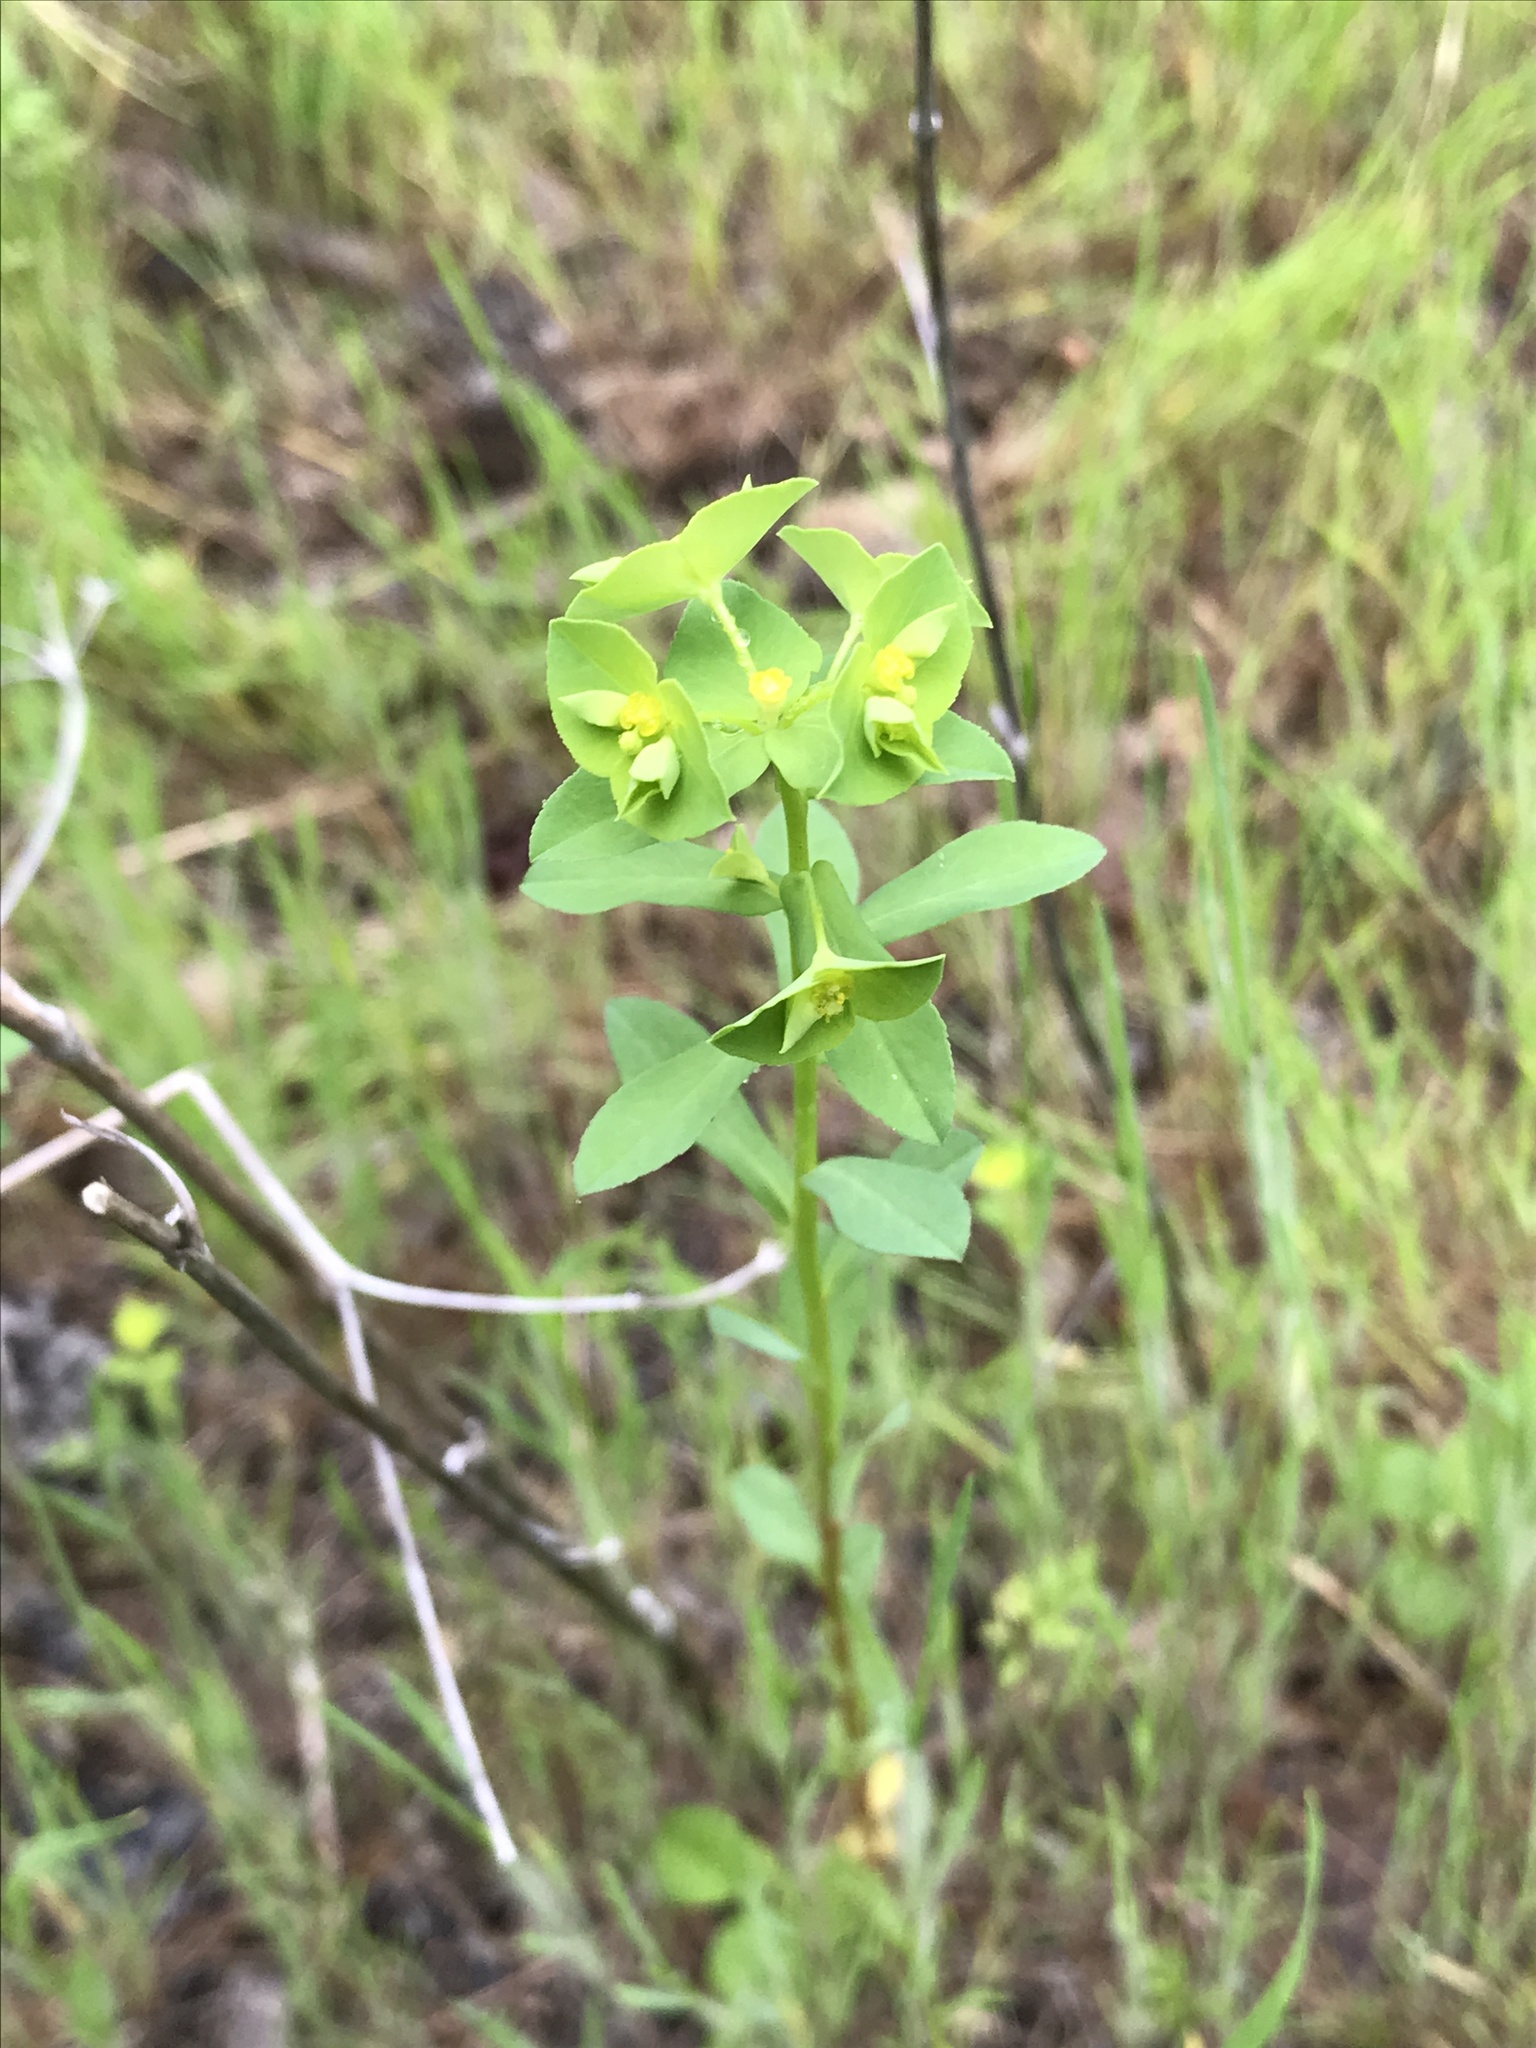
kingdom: Plantae
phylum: Tracheophyta
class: Magnoliopsida
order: Malpighiales
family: Euphorbiaceae
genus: Euphorbia
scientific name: Euphorbia spathulata
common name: Blunt spurge
